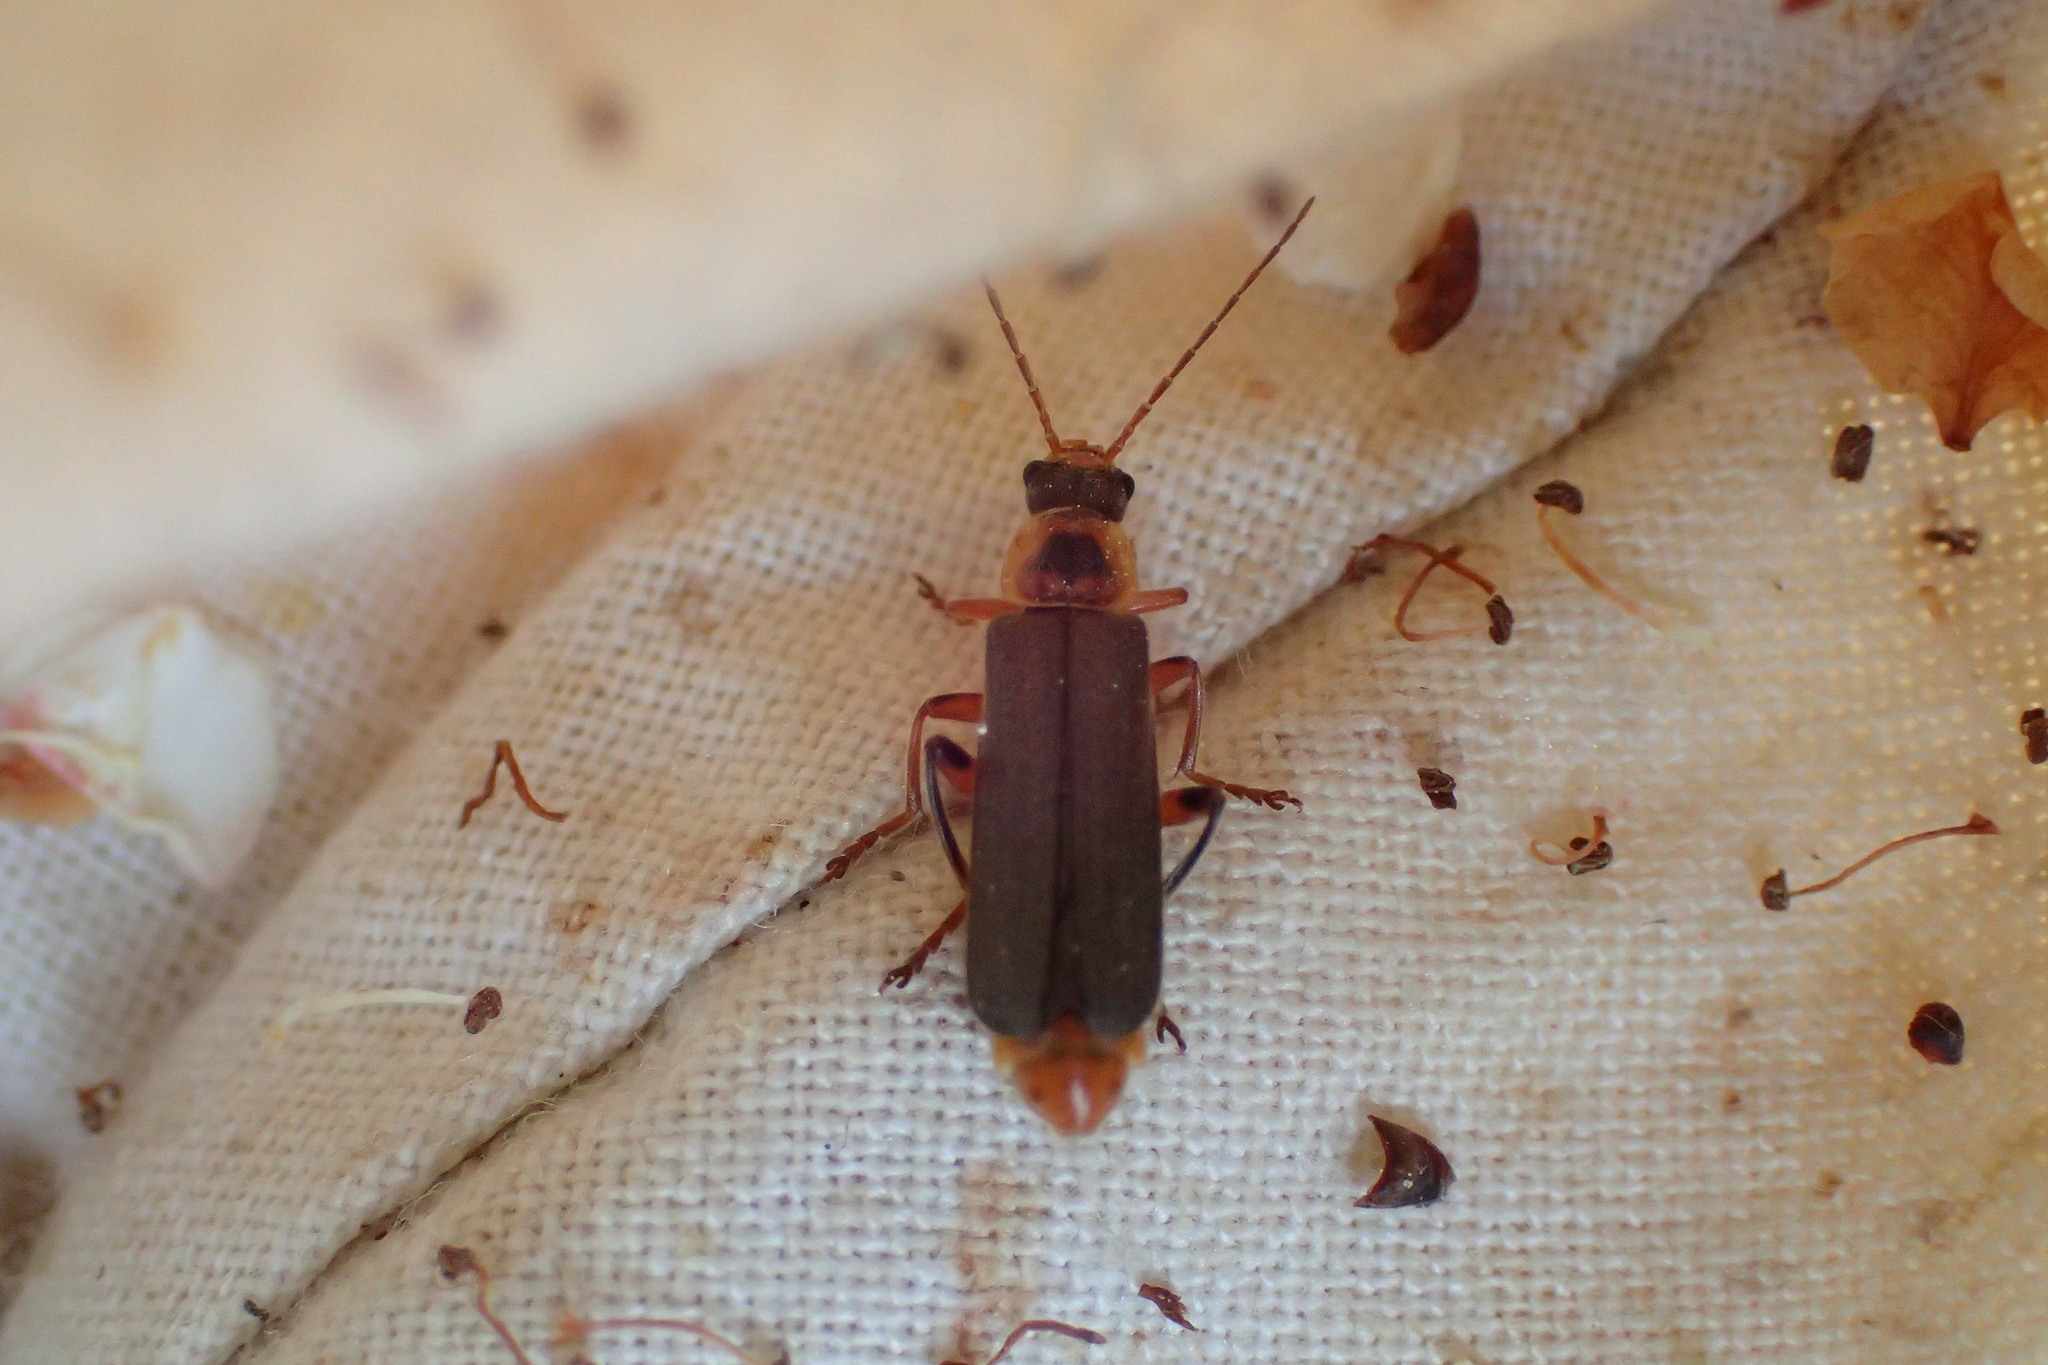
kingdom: Animalia
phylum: Arthropoda
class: Insecta
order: Coleoptera
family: Cantharidae
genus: Cantharis
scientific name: Cantharis nigricans
